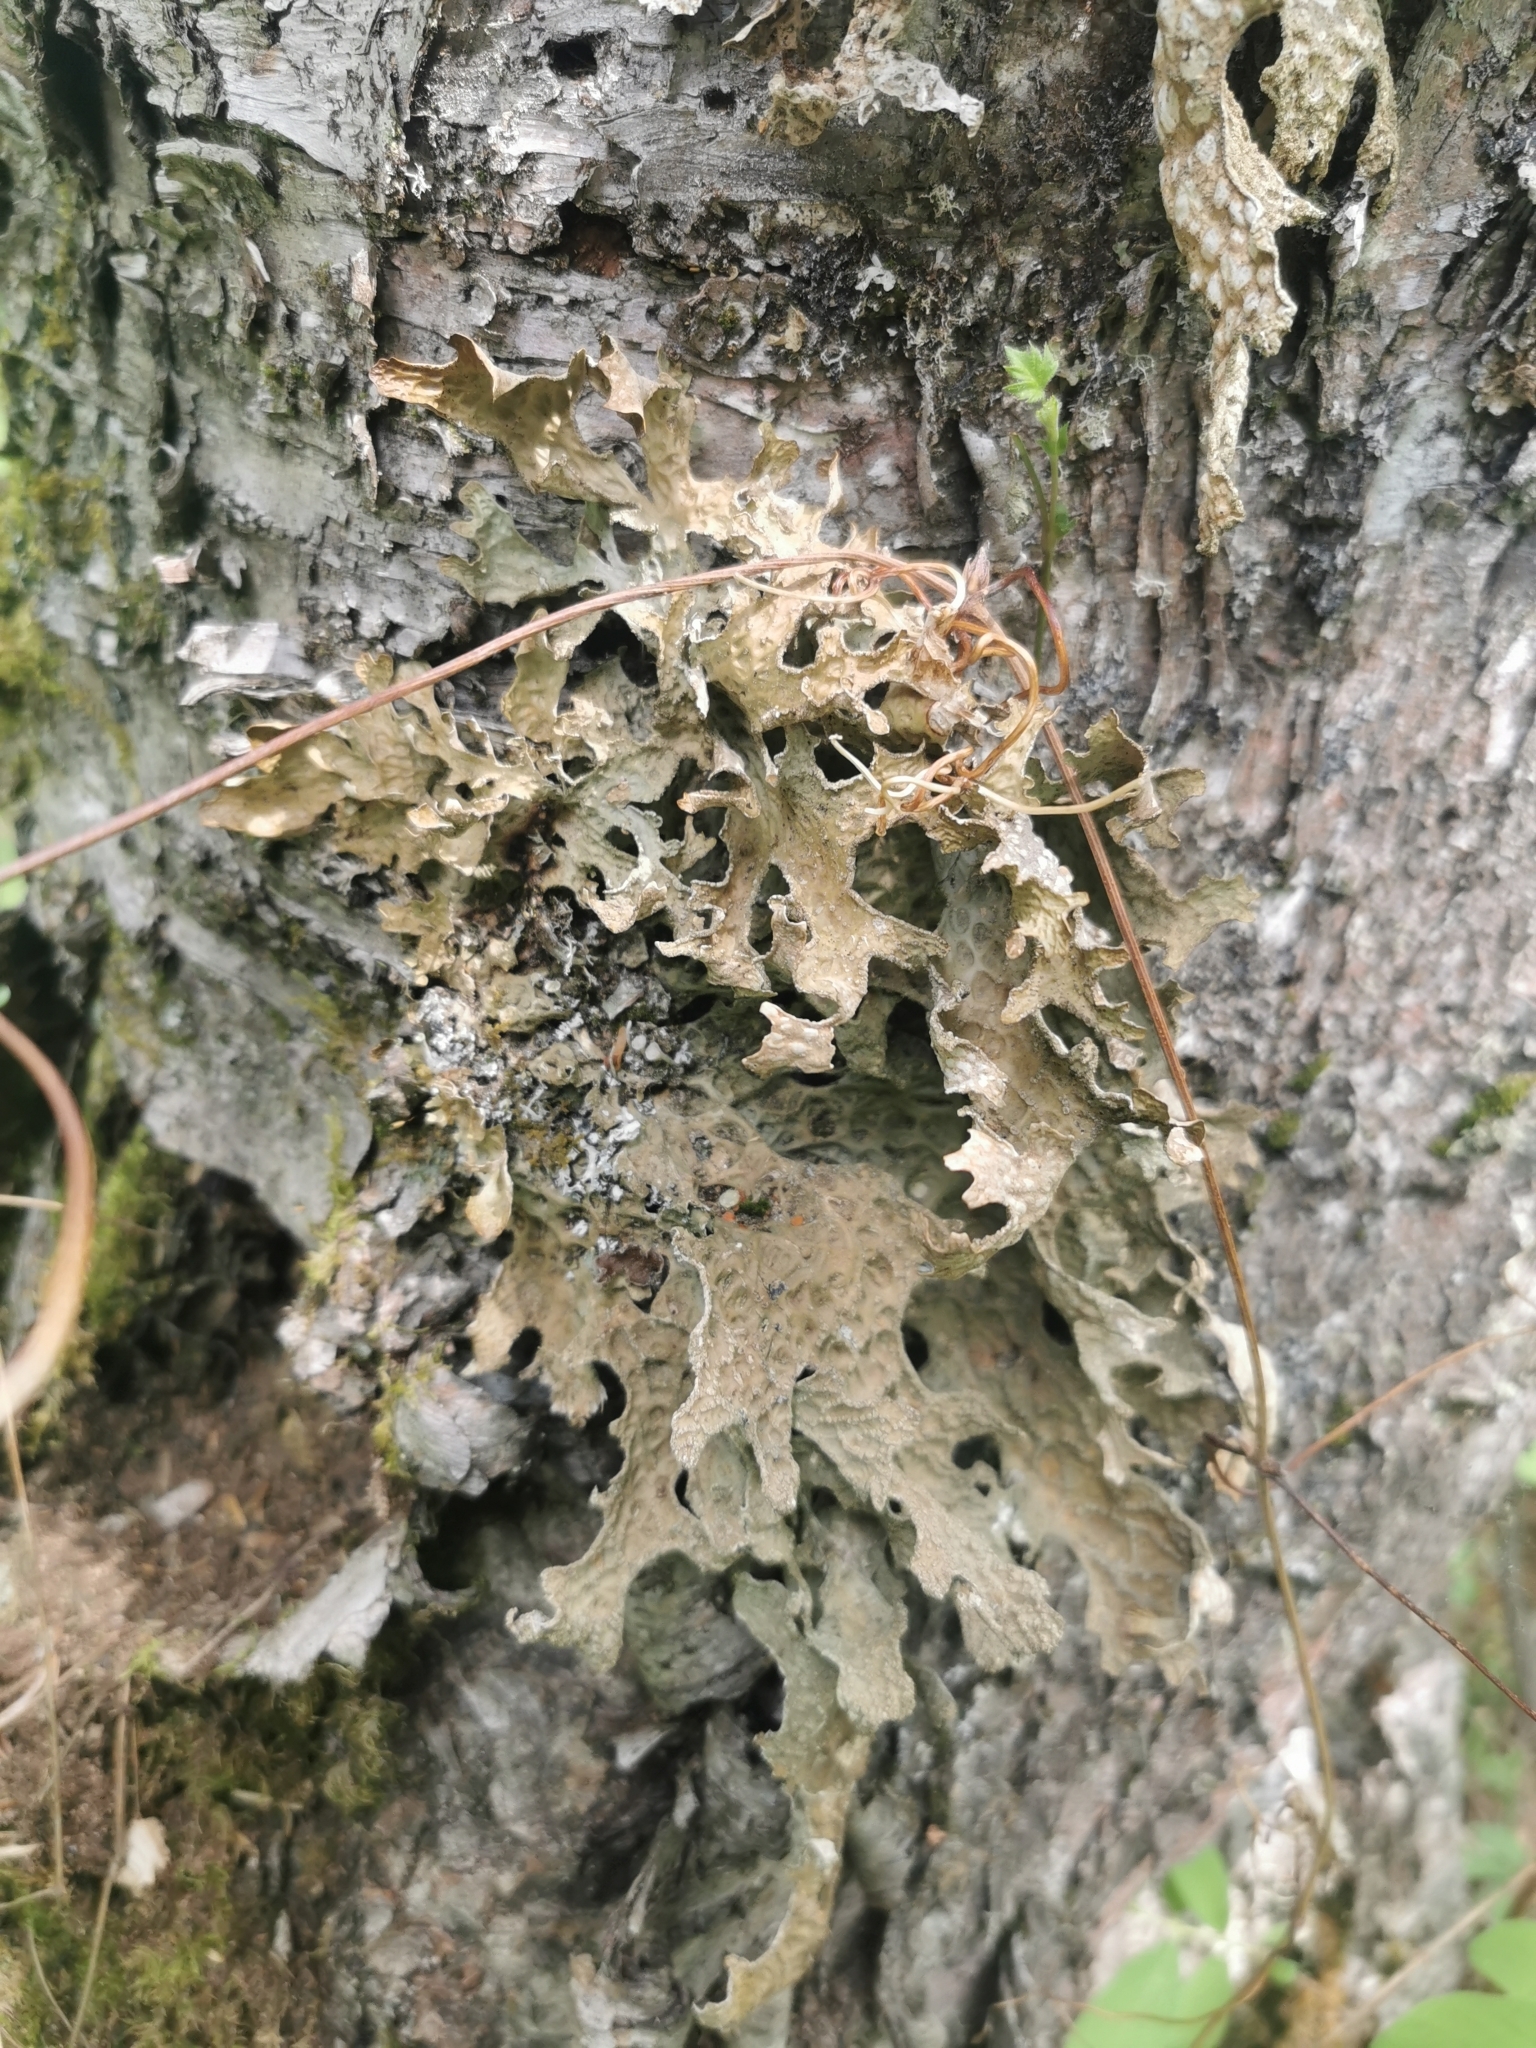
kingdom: Fungi
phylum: Ascomycota
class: Lecanoromycetes
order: Peltigerales
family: Lobariaceae
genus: Lobaria
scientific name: Lobaria pulmonaria
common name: Lungwort
